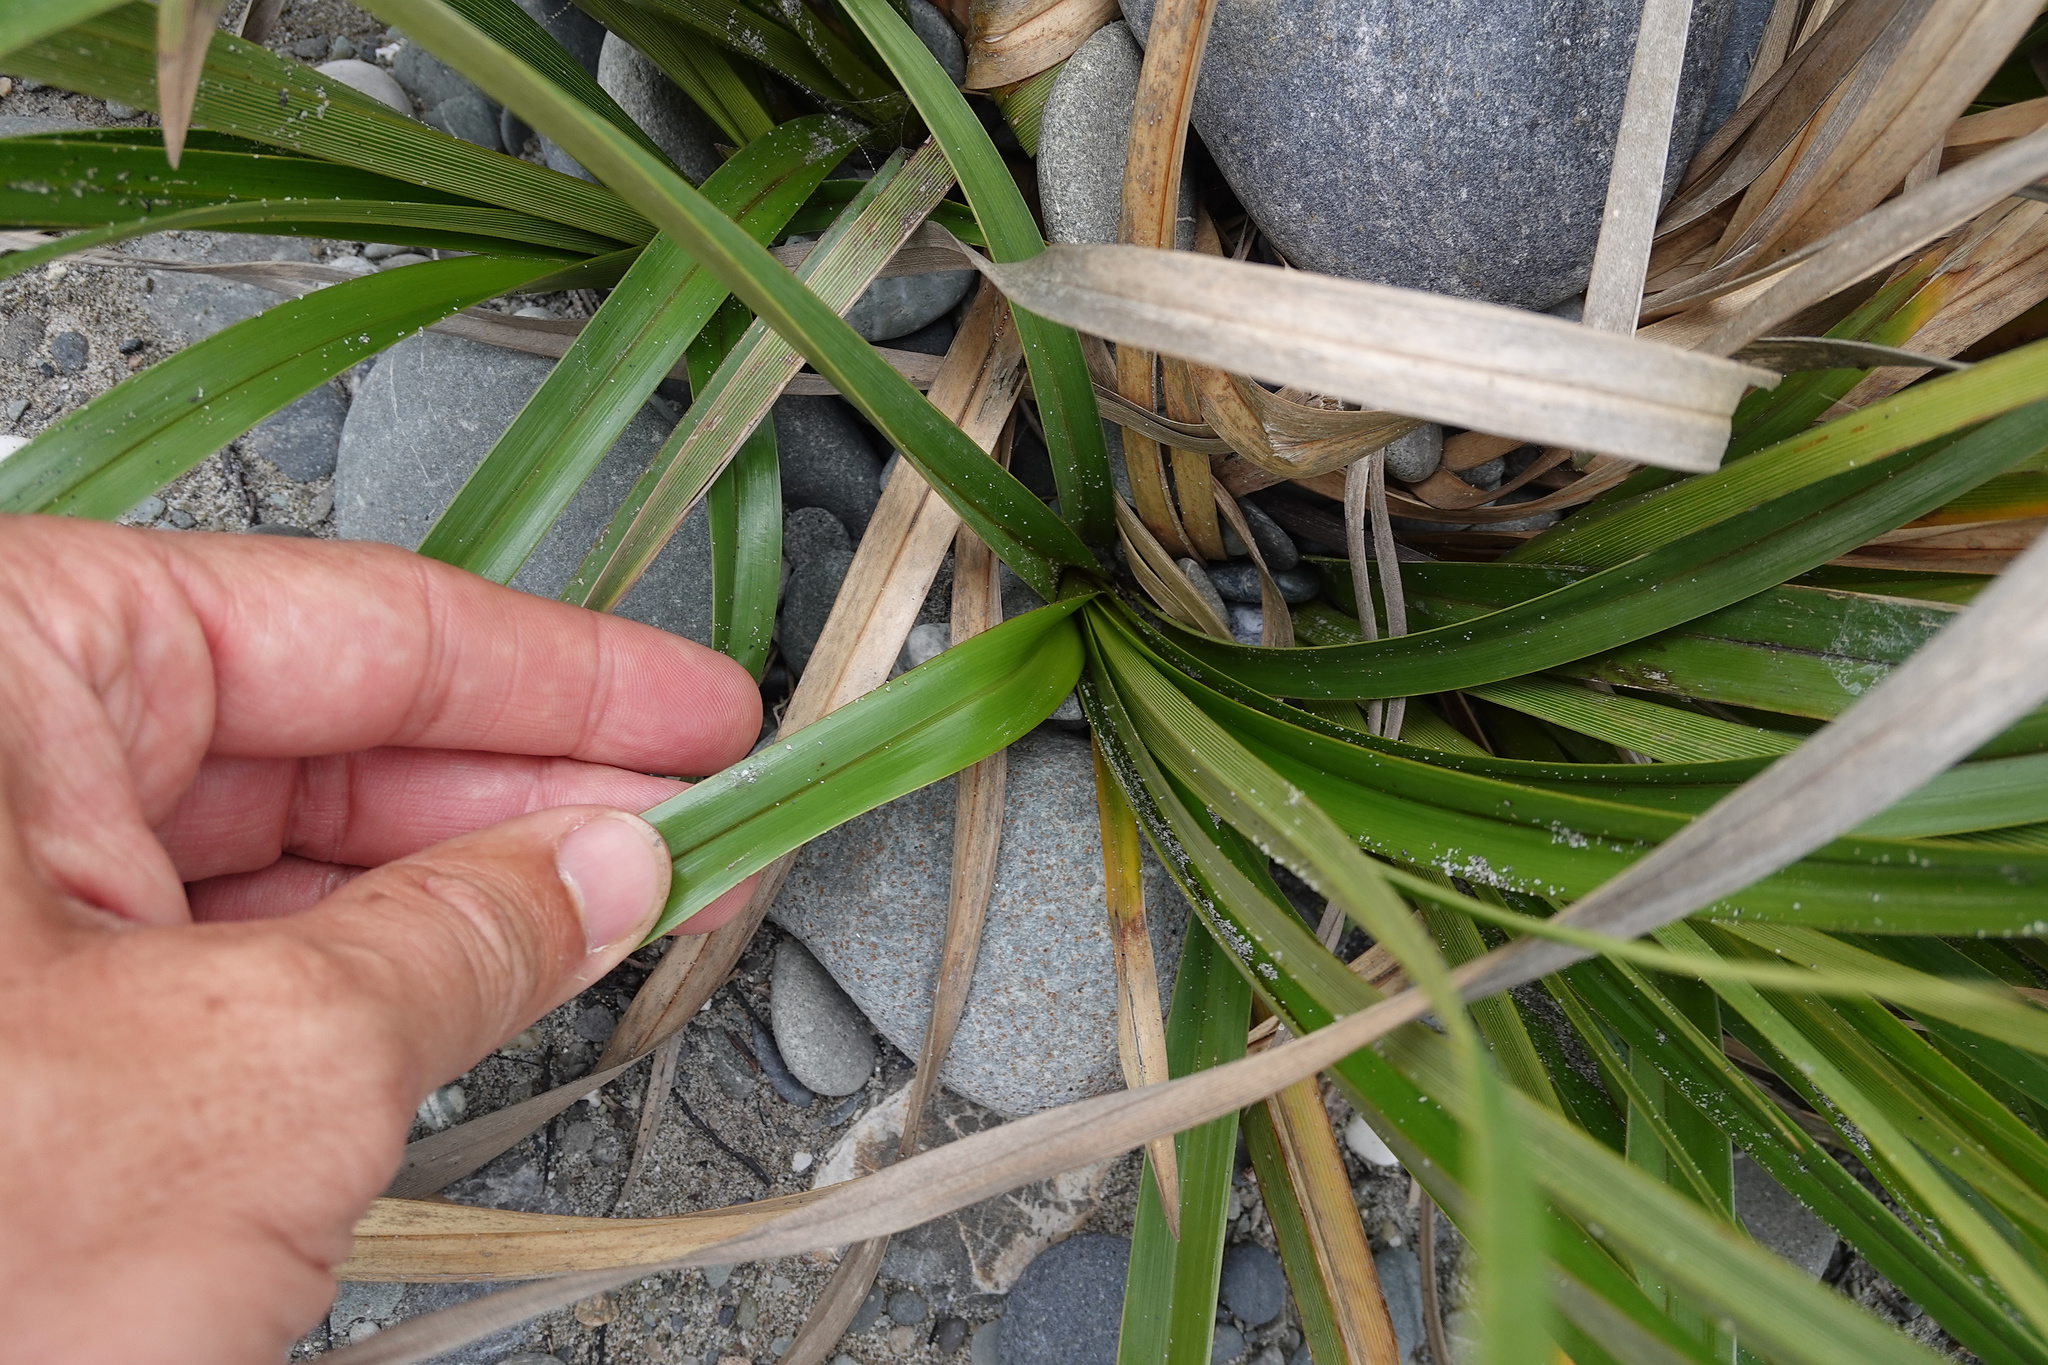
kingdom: Plantae
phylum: Tracheophyta
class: Liliopsida
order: Poales
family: Cyperaceae
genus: Cyperus
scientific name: Cyperus ustulatus
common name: Giant umbrella-sedge
